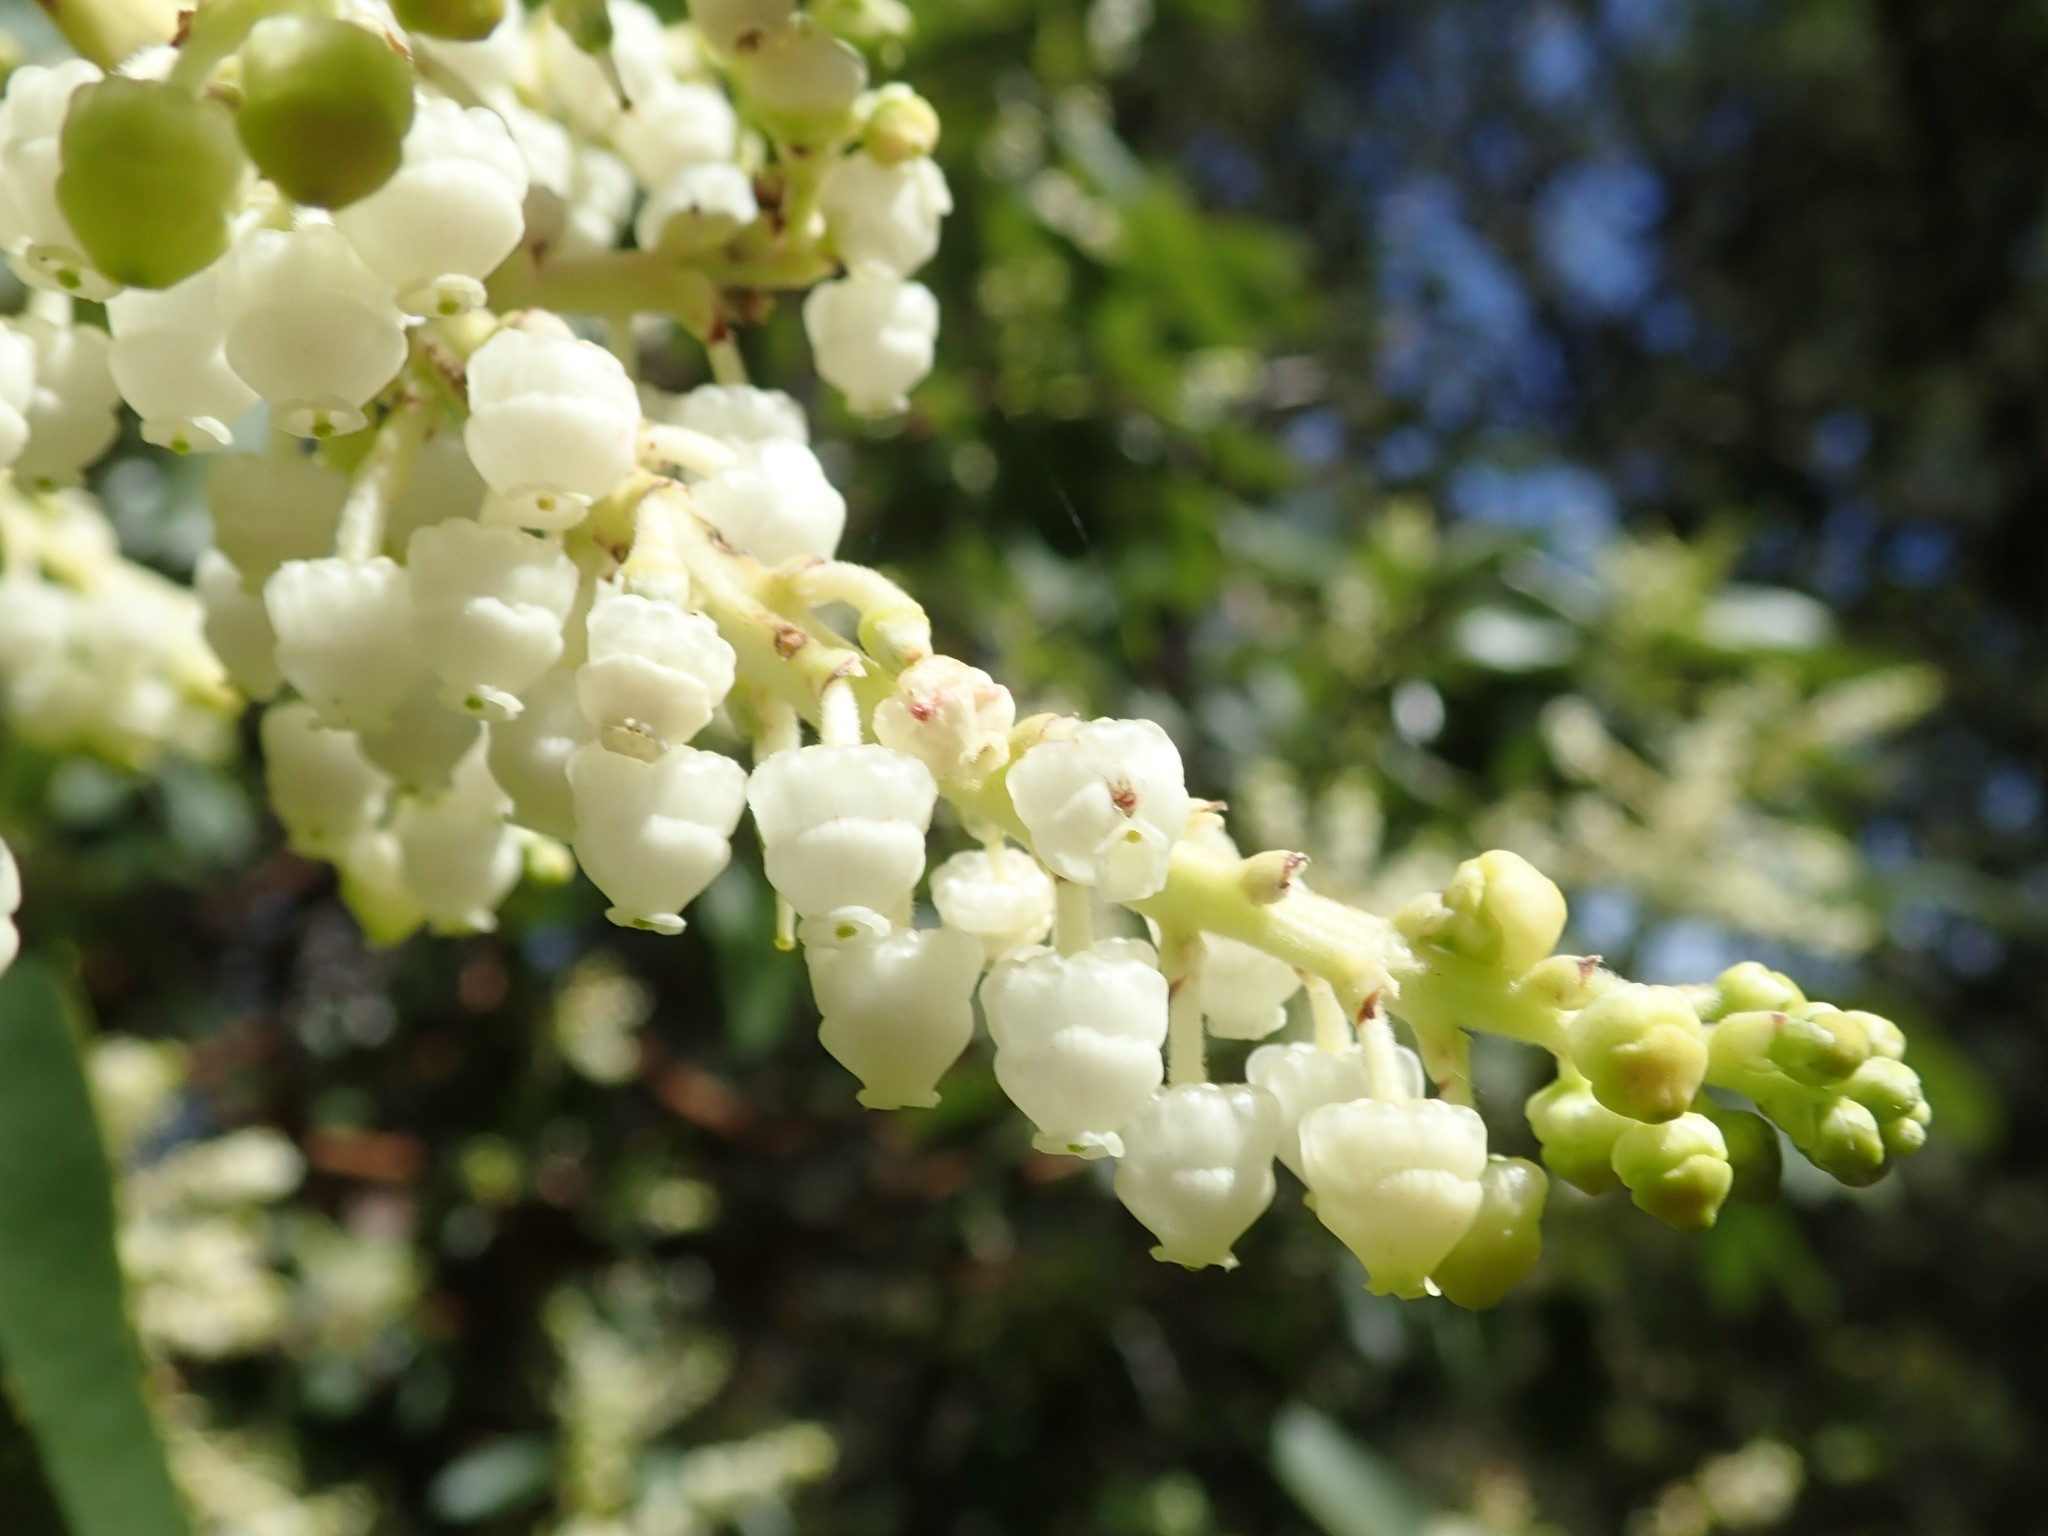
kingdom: Plantae
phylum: Tracheophyta
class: Magnoliopsida
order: Ericales
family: Ericaceae
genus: Arbutus
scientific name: Arbutus menziesii
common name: Pacific madrone
